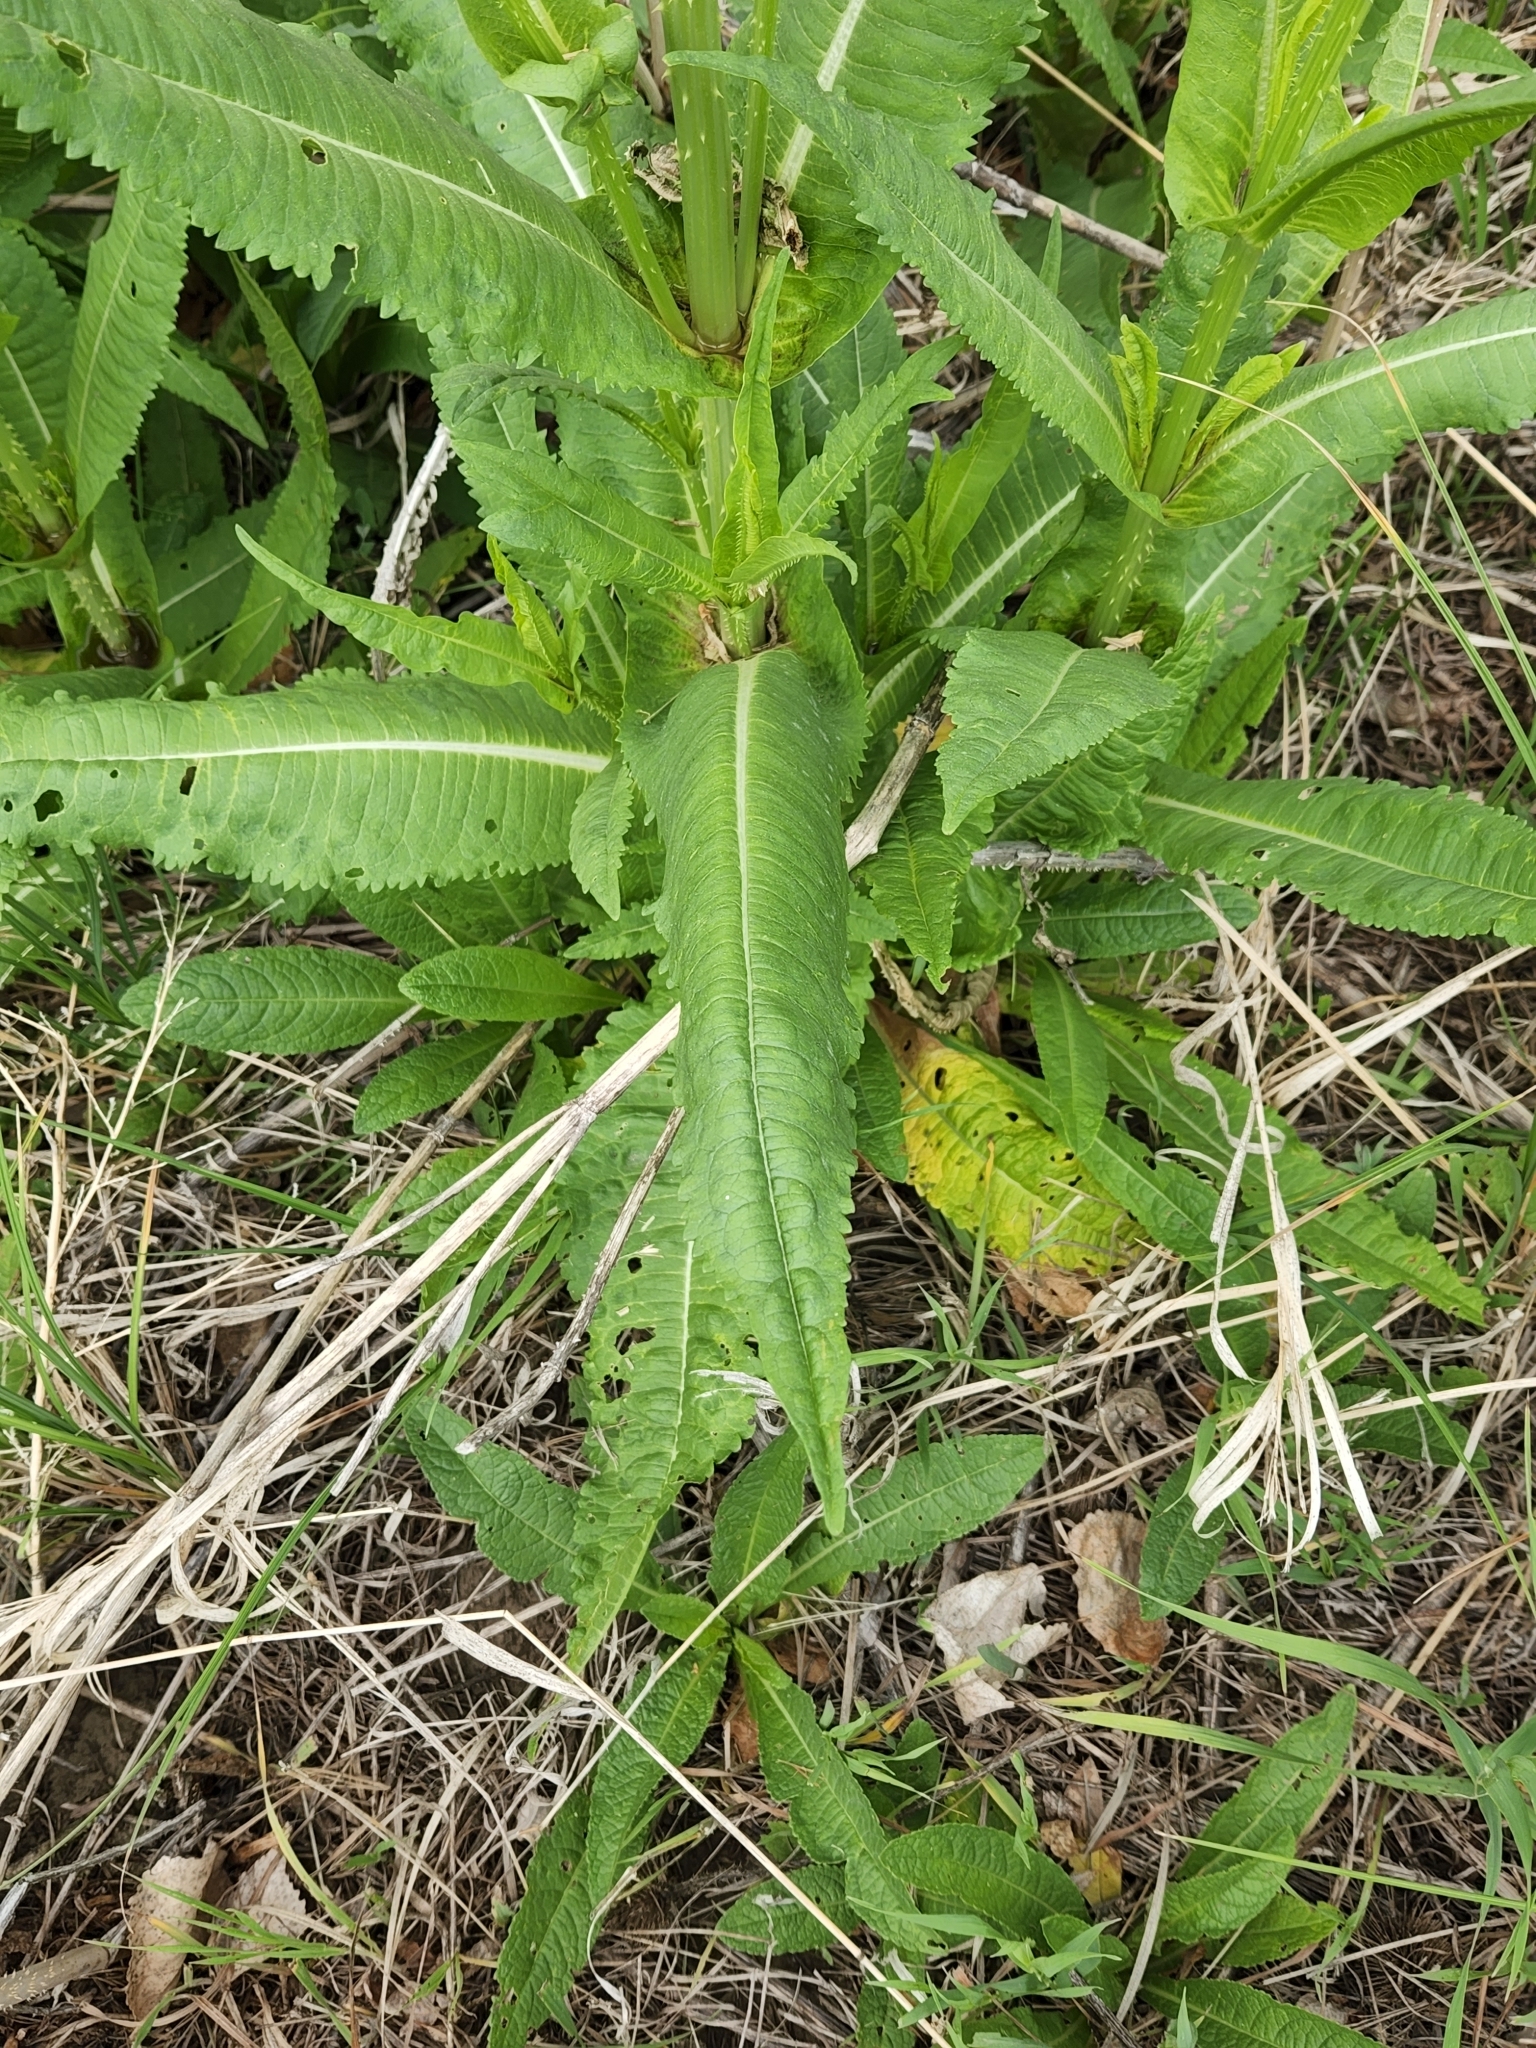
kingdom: Plantae
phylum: Tracheophyta
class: Magnoliopsida
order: Dipsacales
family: Caprifoliaceae
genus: Dipsacus
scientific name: Dipsacus fullonum
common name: Teasel
